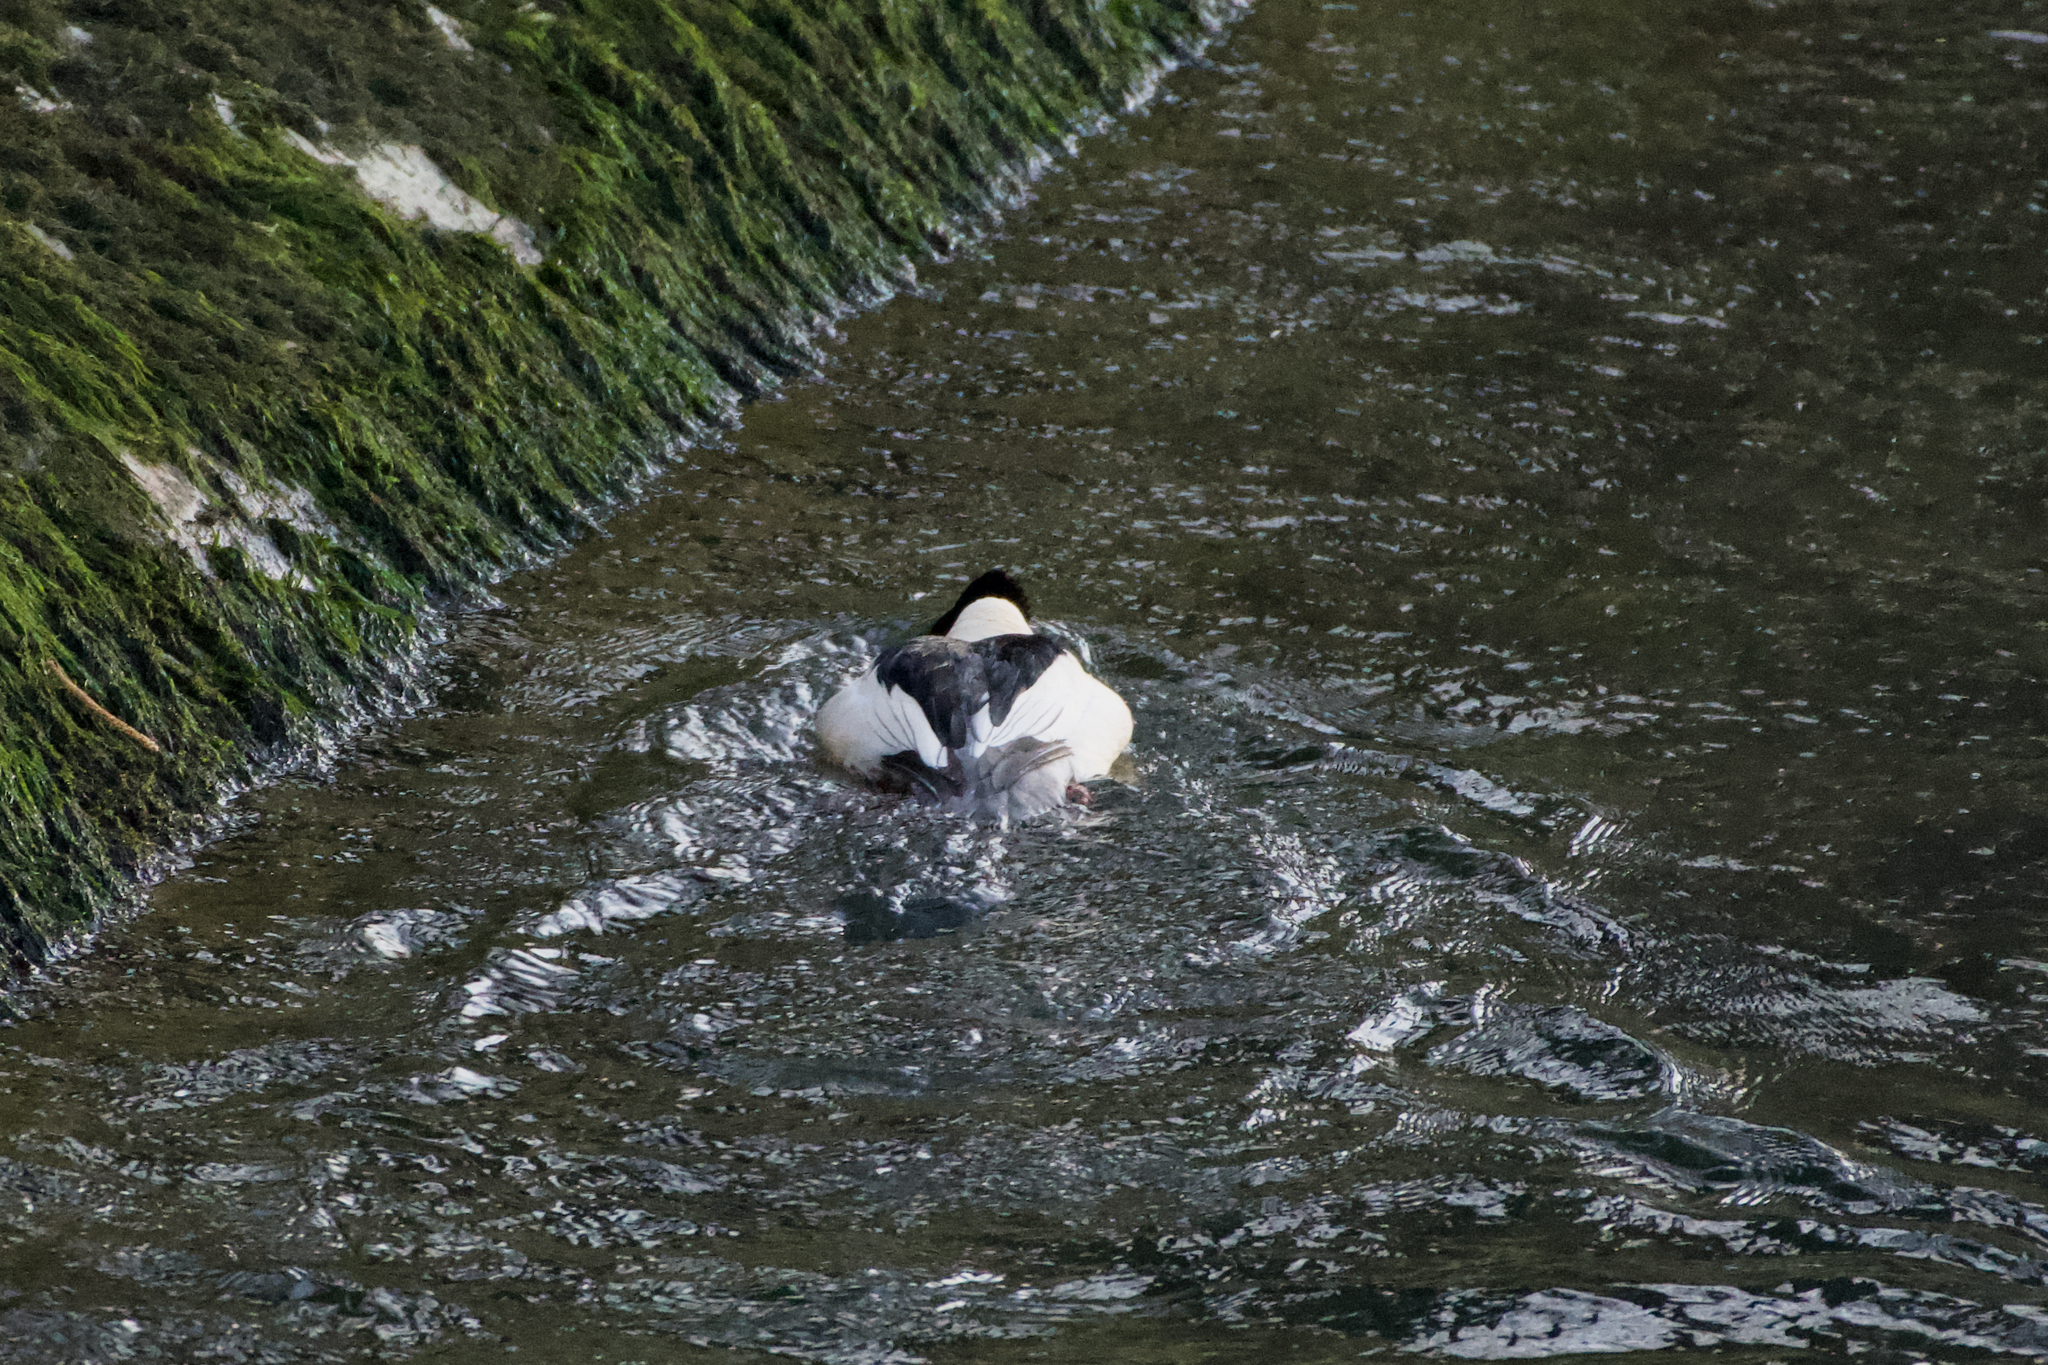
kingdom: Animalia
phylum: Chordata
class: Aves
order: Anseriformes
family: Anatidae
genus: Mergus
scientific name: Mergus merganser
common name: Common merganser
